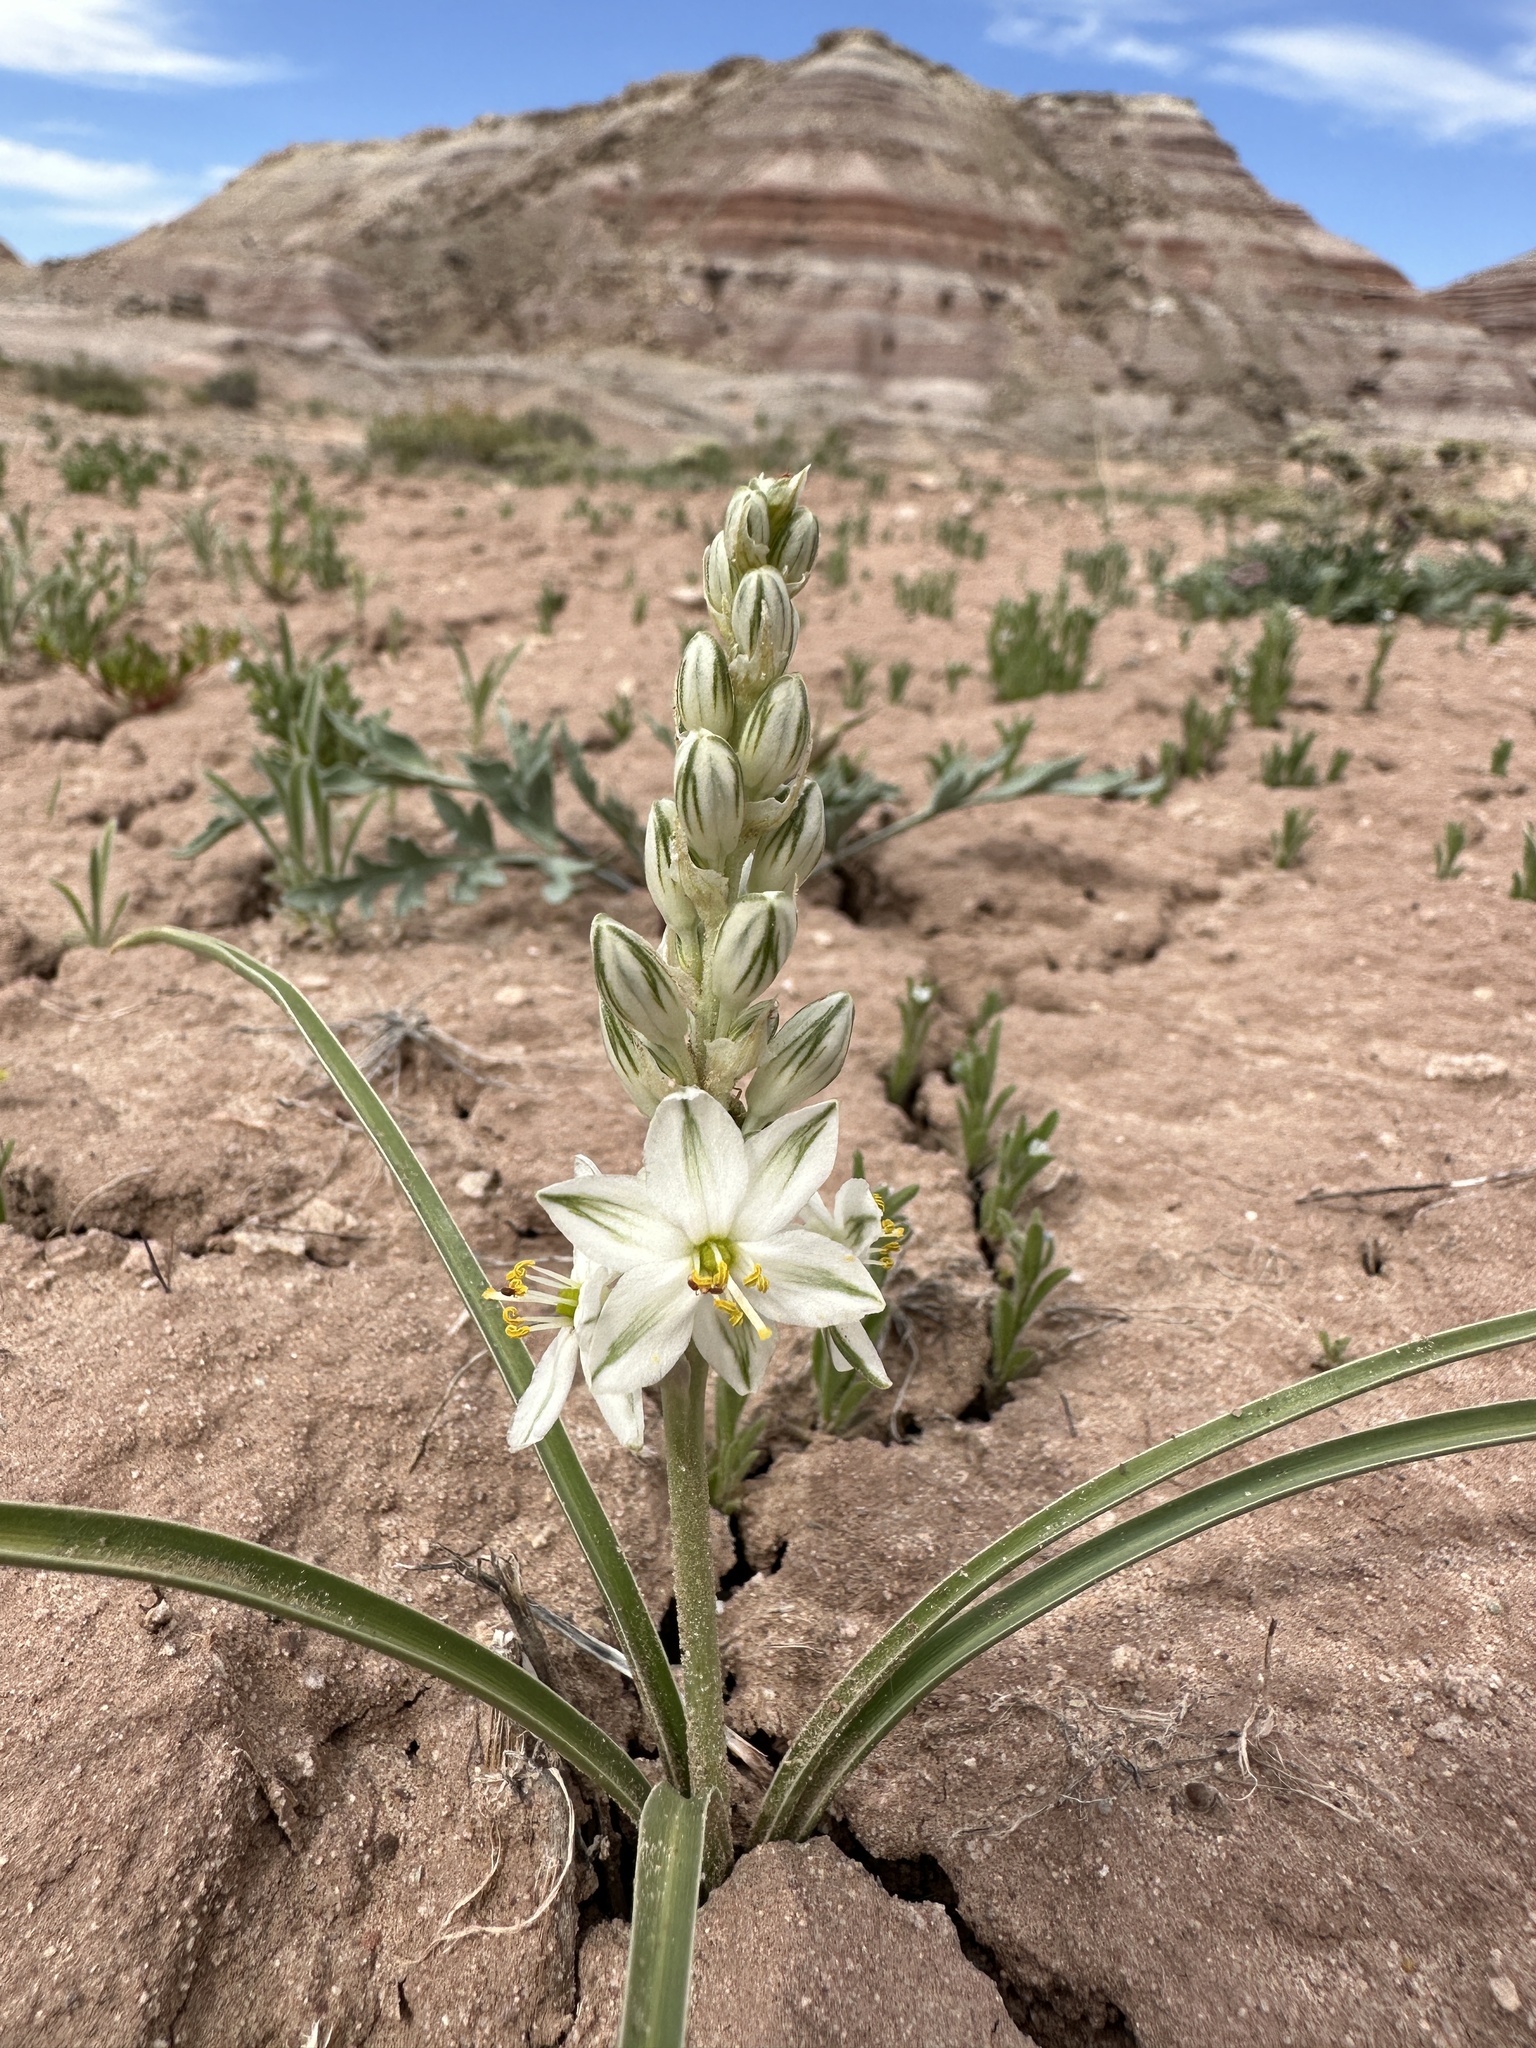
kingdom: Plantae
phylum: Tracheophyta
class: Liliopsida
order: Asparagales
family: Asparagaceae
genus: Eremocrinum
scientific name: Eremocrinum albomarginatum
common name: Sand-lily
